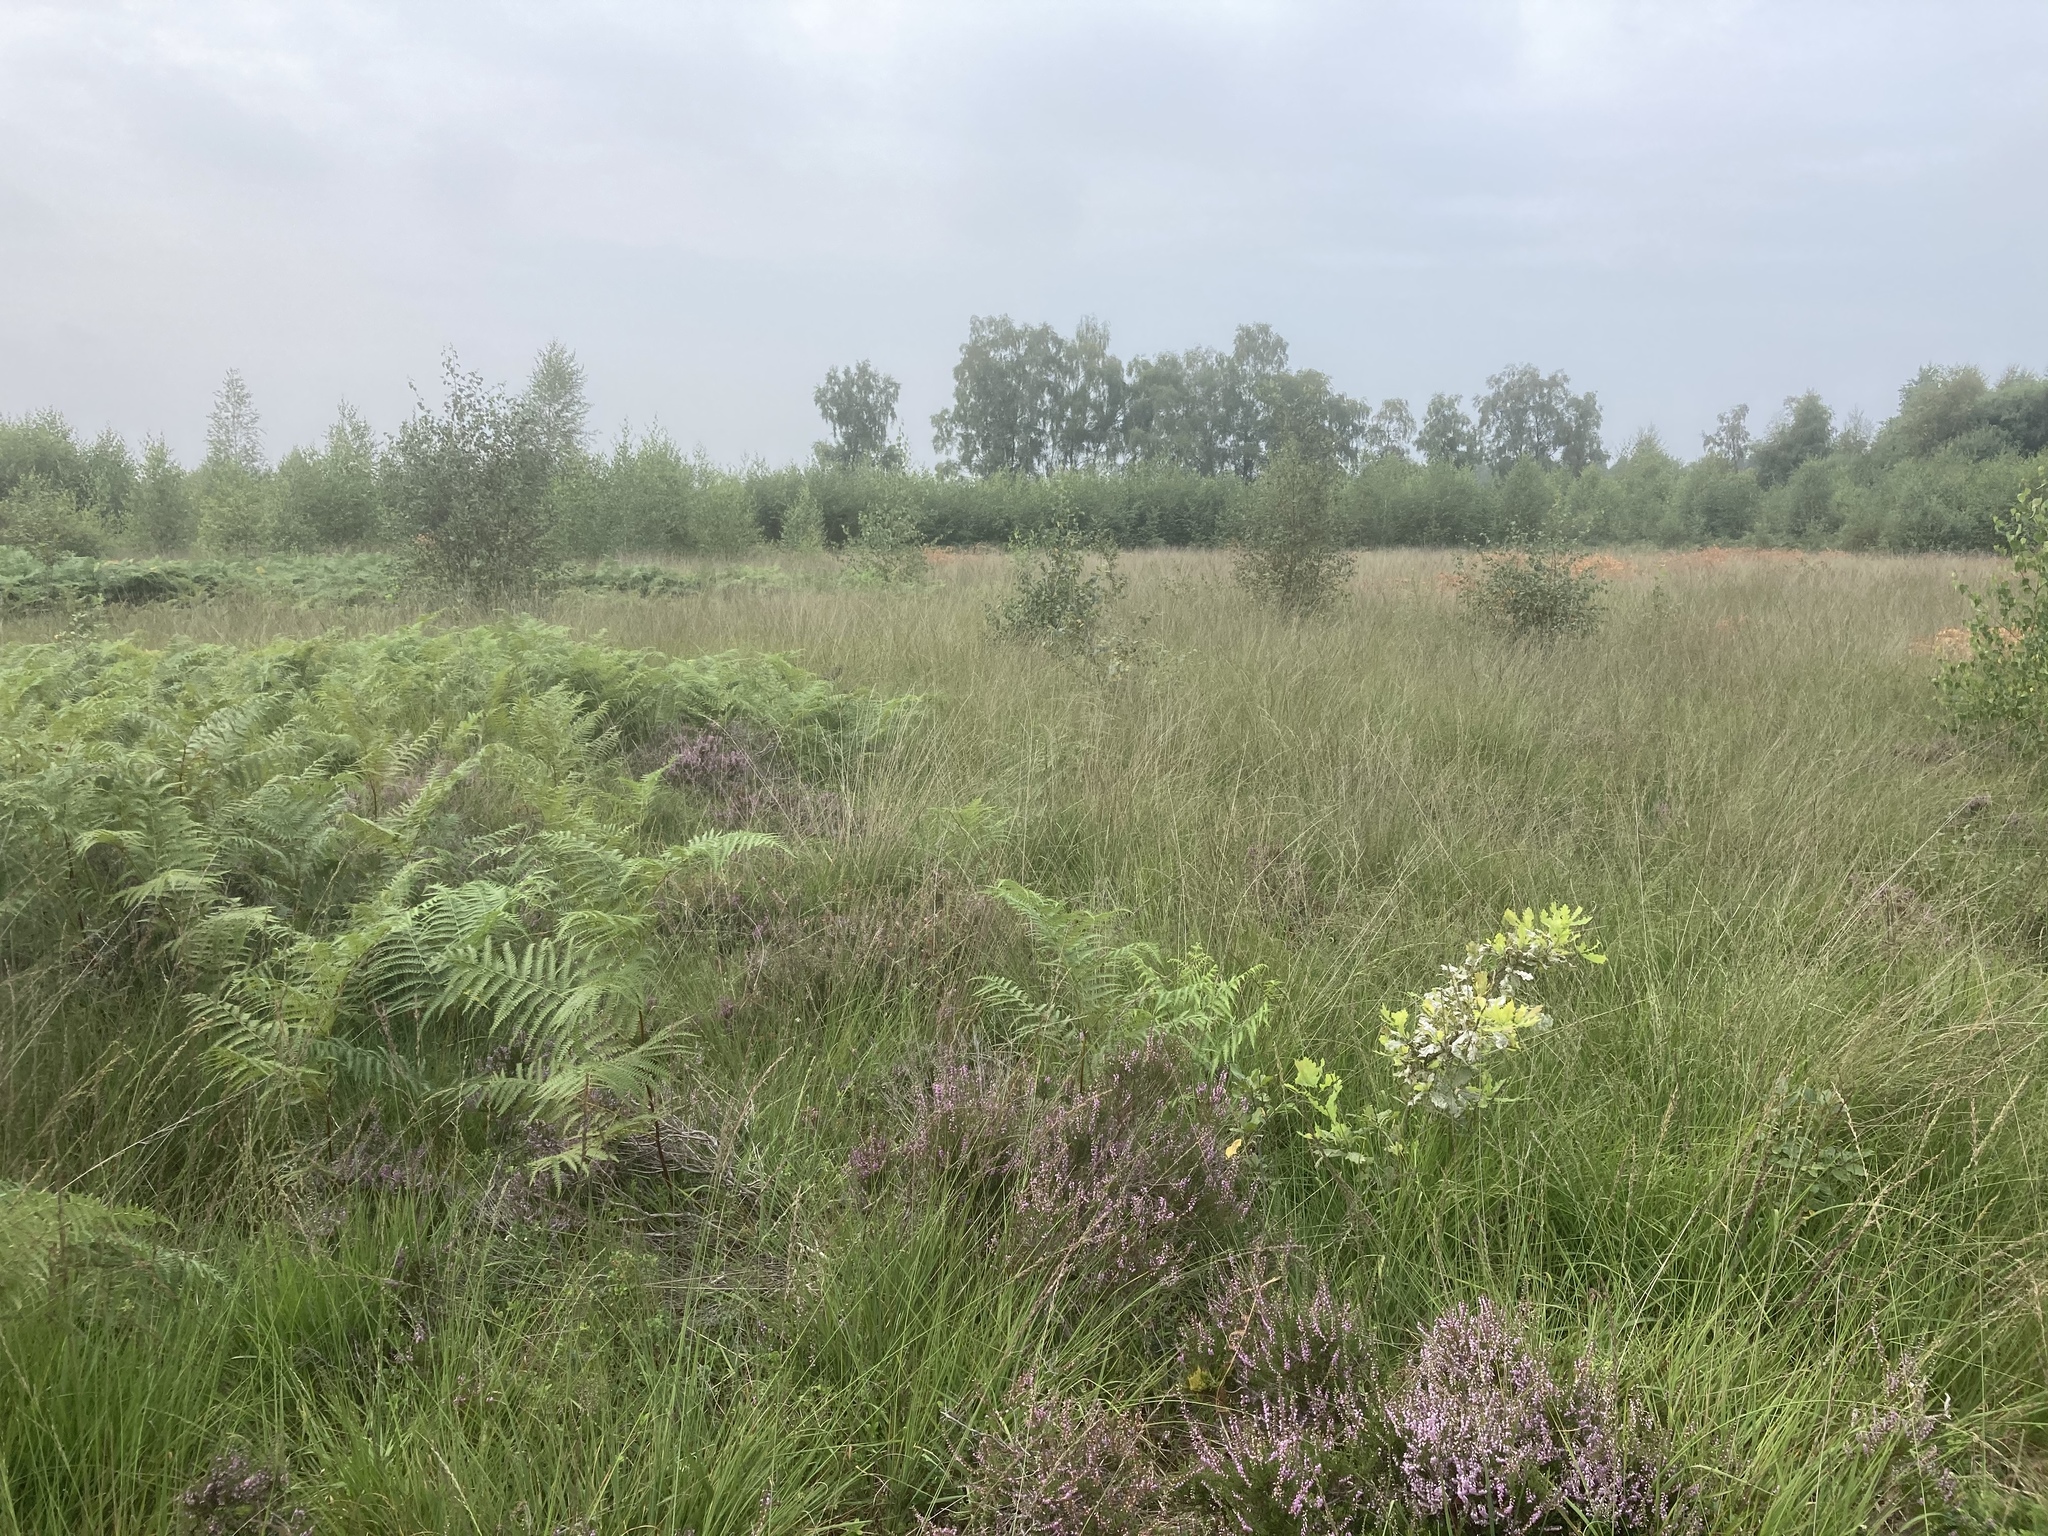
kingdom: Plantae
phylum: Tracheophyta
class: Magnoliopsida
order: Ericales
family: Ericaceae
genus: Calluna
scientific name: Calluna vulgaris
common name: Heather
